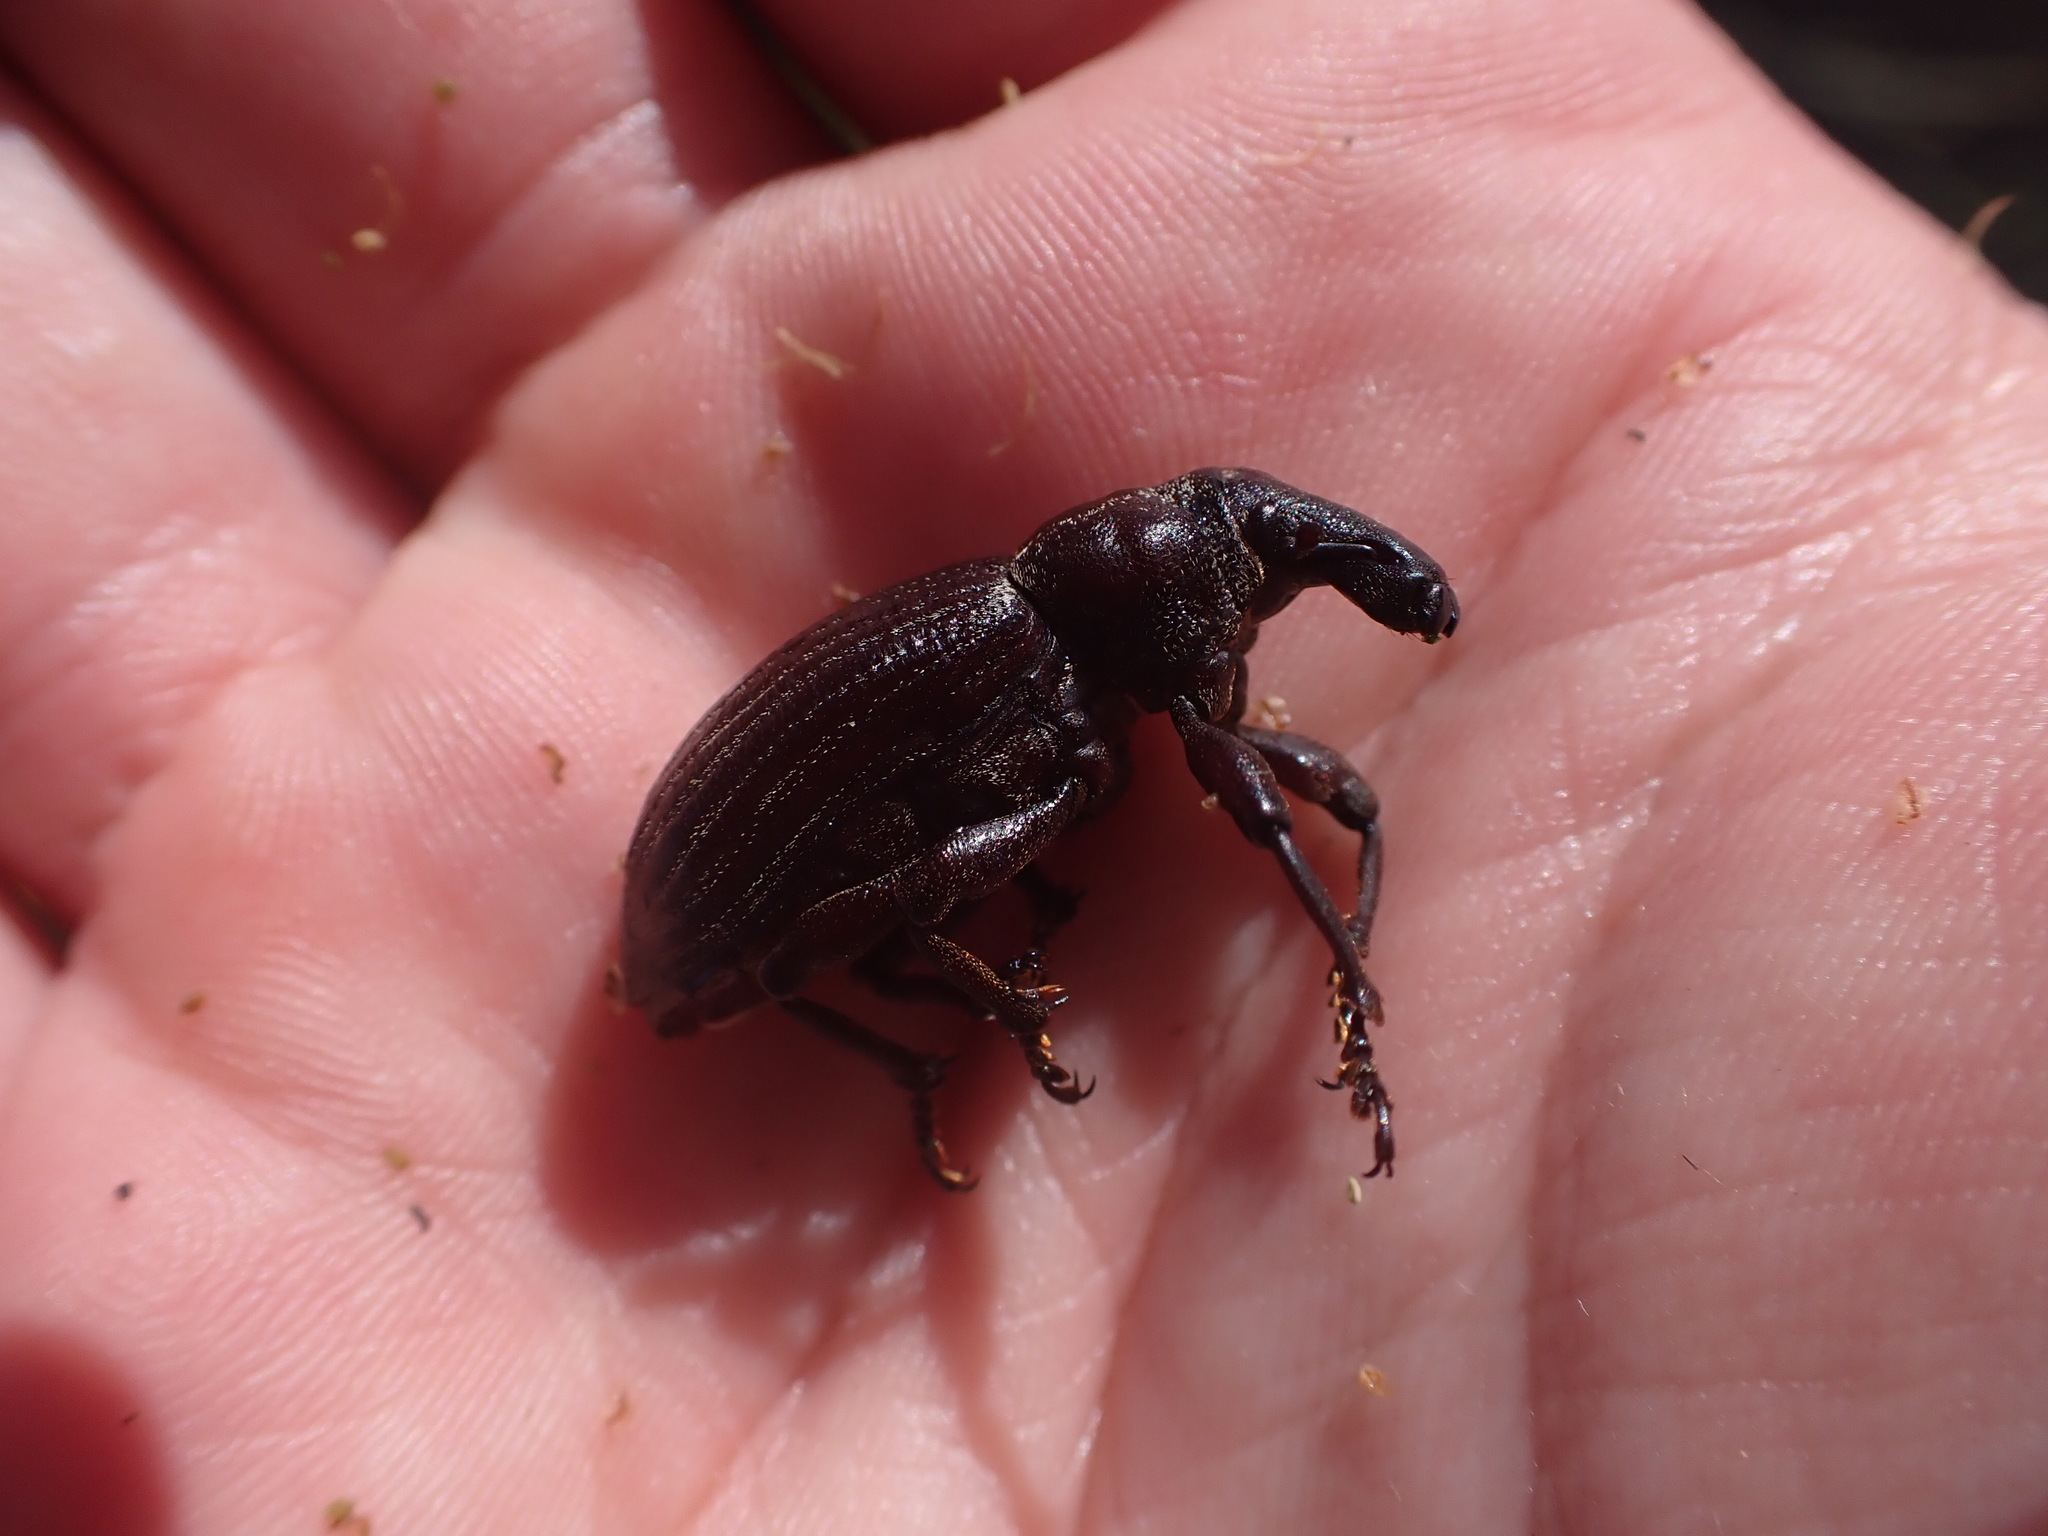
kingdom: Animalia
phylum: Arthropoda
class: Insecta
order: Coleoptera
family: Curculionidae
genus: Lyperobius
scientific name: Lyperobius huttoni
